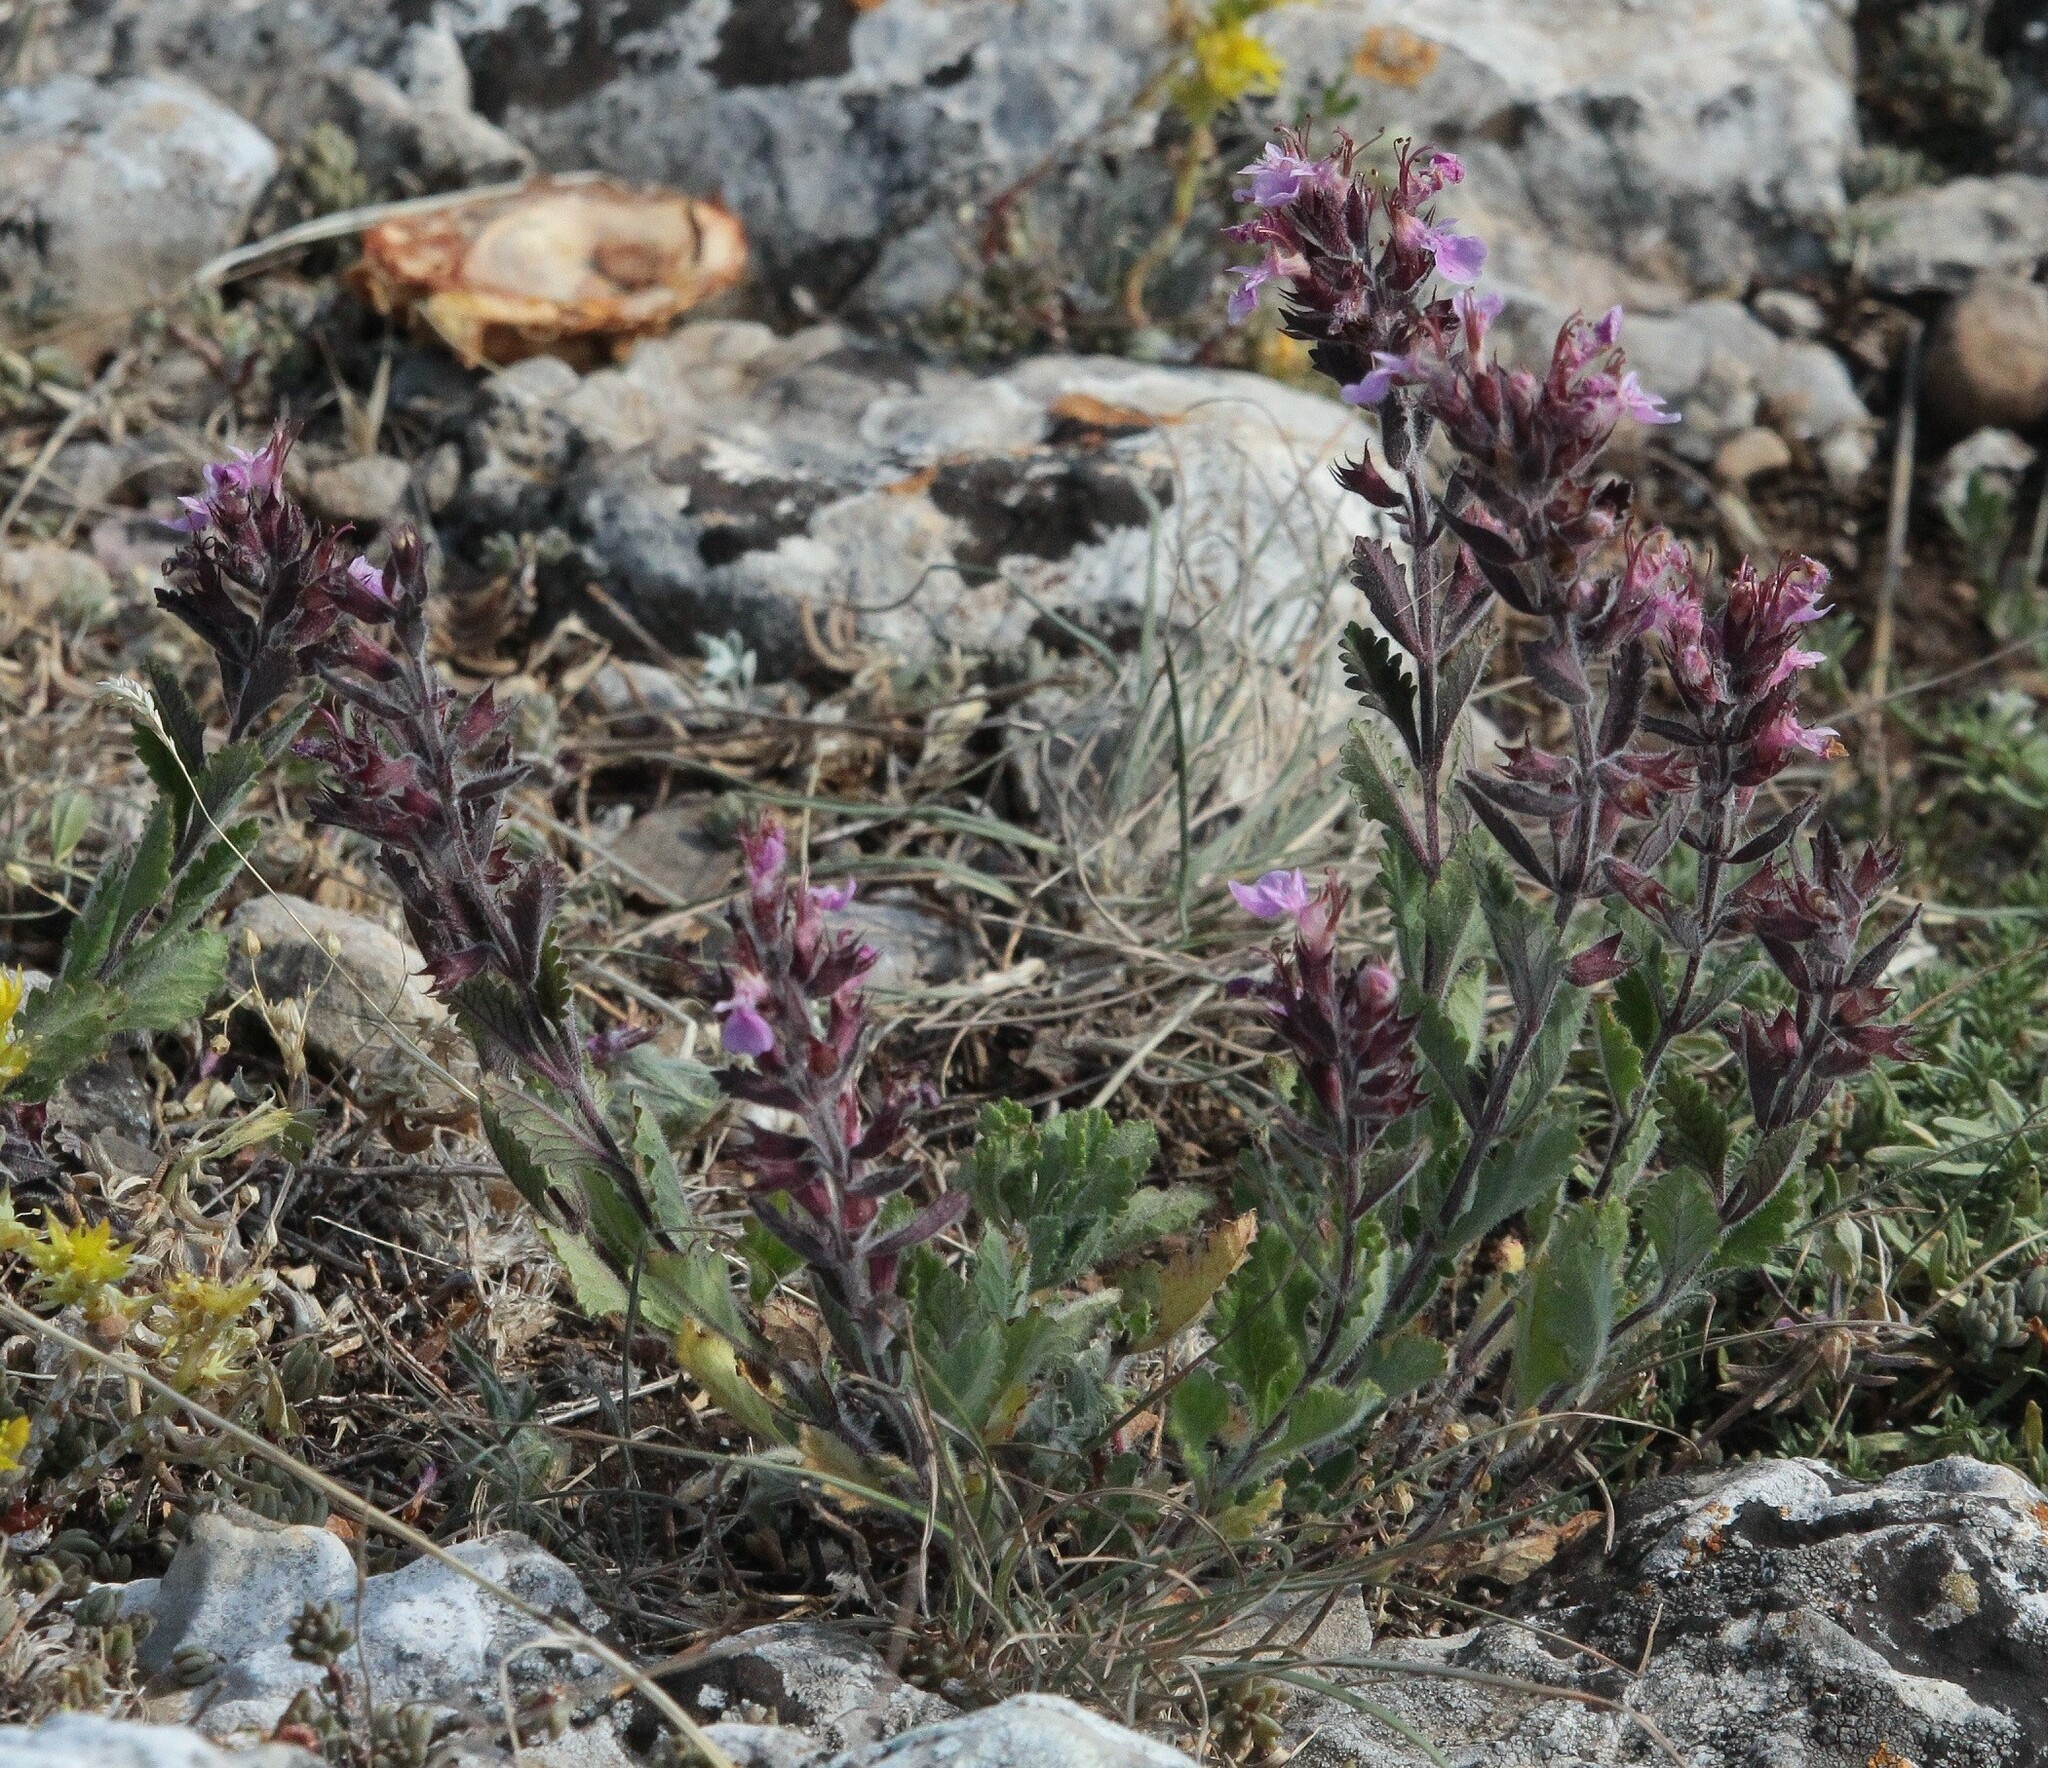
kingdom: Plantae
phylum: Tracheophyta
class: Magnoliopsida
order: Lamiales
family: Lamiaceae
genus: Teucrium
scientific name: Teucrium chamaedrys
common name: Wall germander
